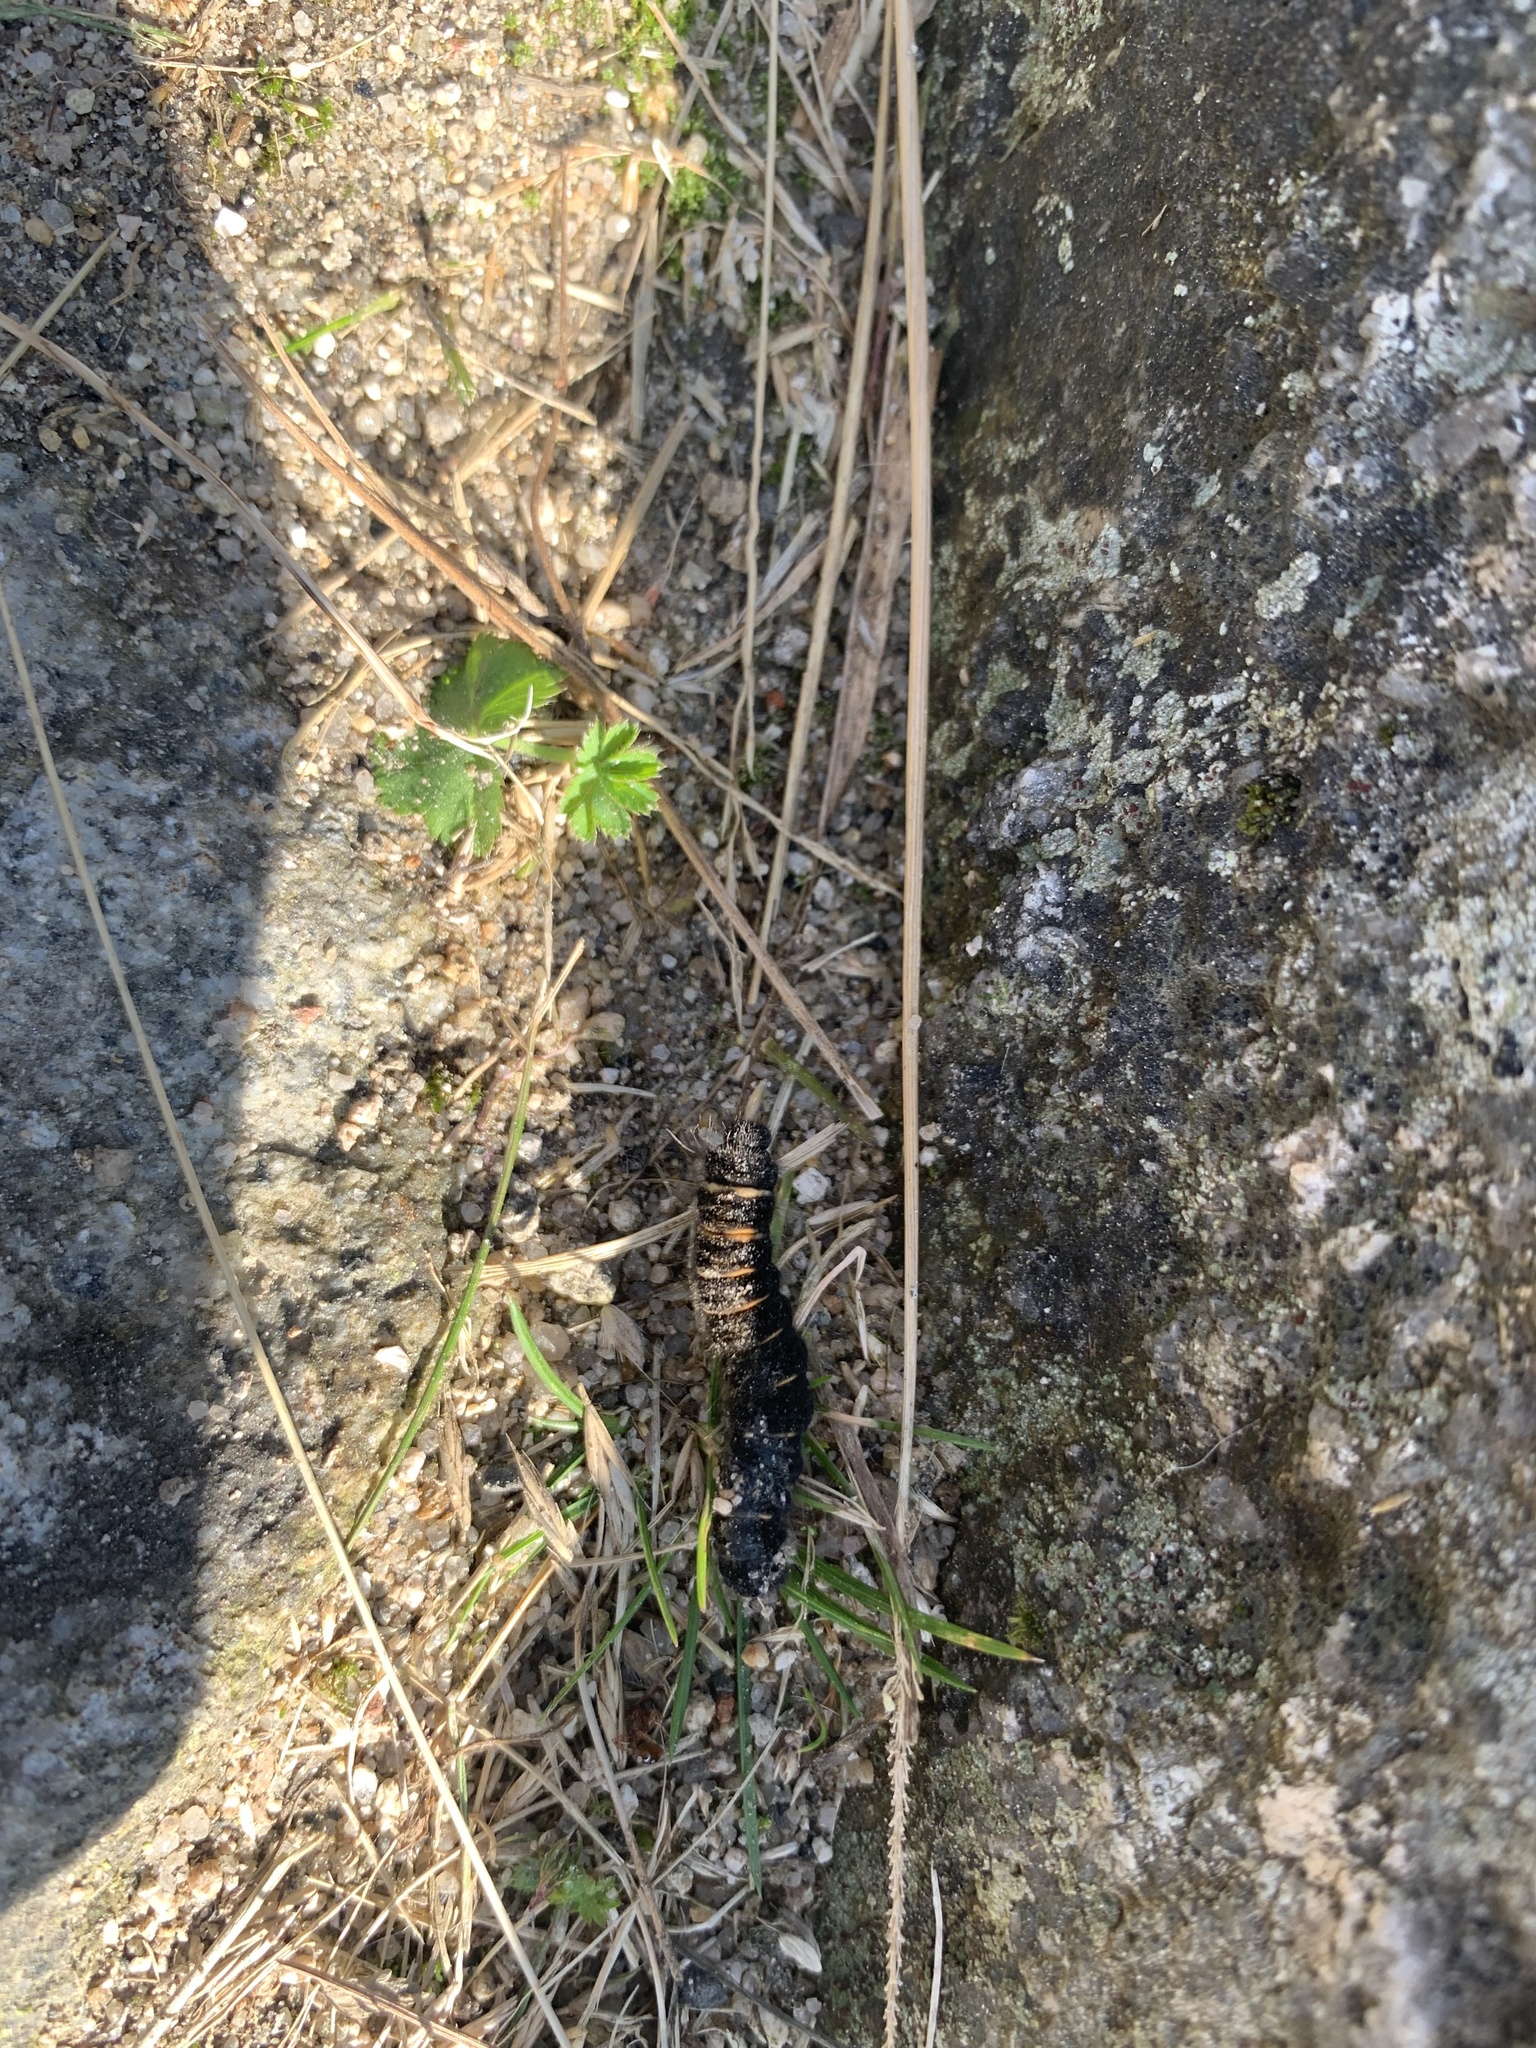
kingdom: Animalia
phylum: Arthropoda
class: Insecta
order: Lepidoptera
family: Lasiocampidae
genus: Macrothylacia
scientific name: Macrothylacia rubi
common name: Fox moth
